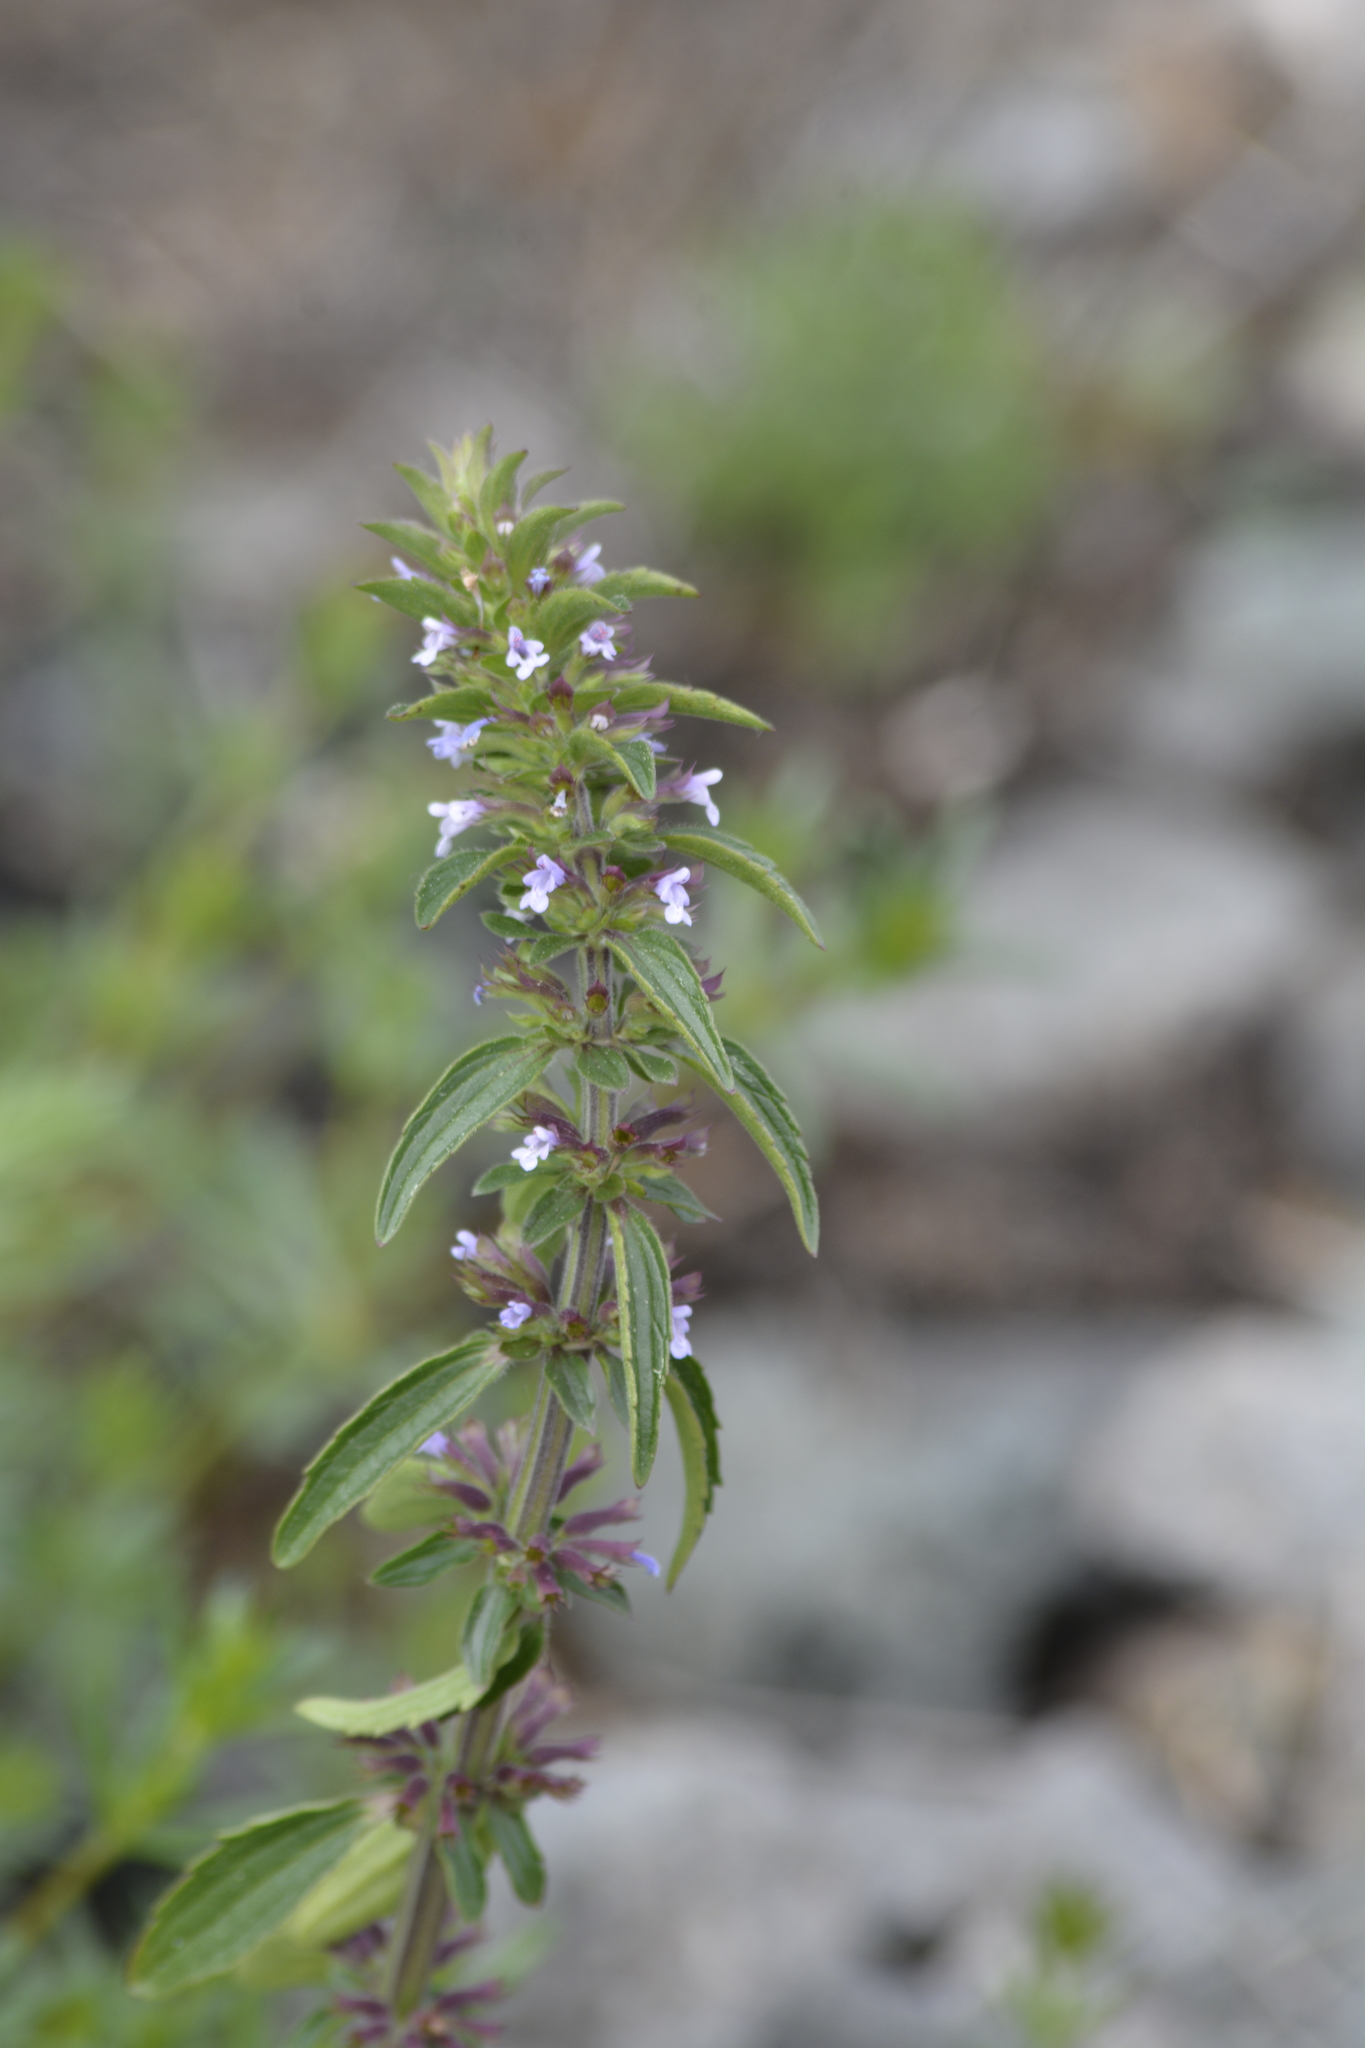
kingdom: Plantae
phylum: Tracheophyta
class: Magnoliopsida
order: Lamiales
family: Lamiaceae
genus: Dracocephalum
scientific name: Dracocephalum thymiflorum
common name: Thymeleaf dragonhead
